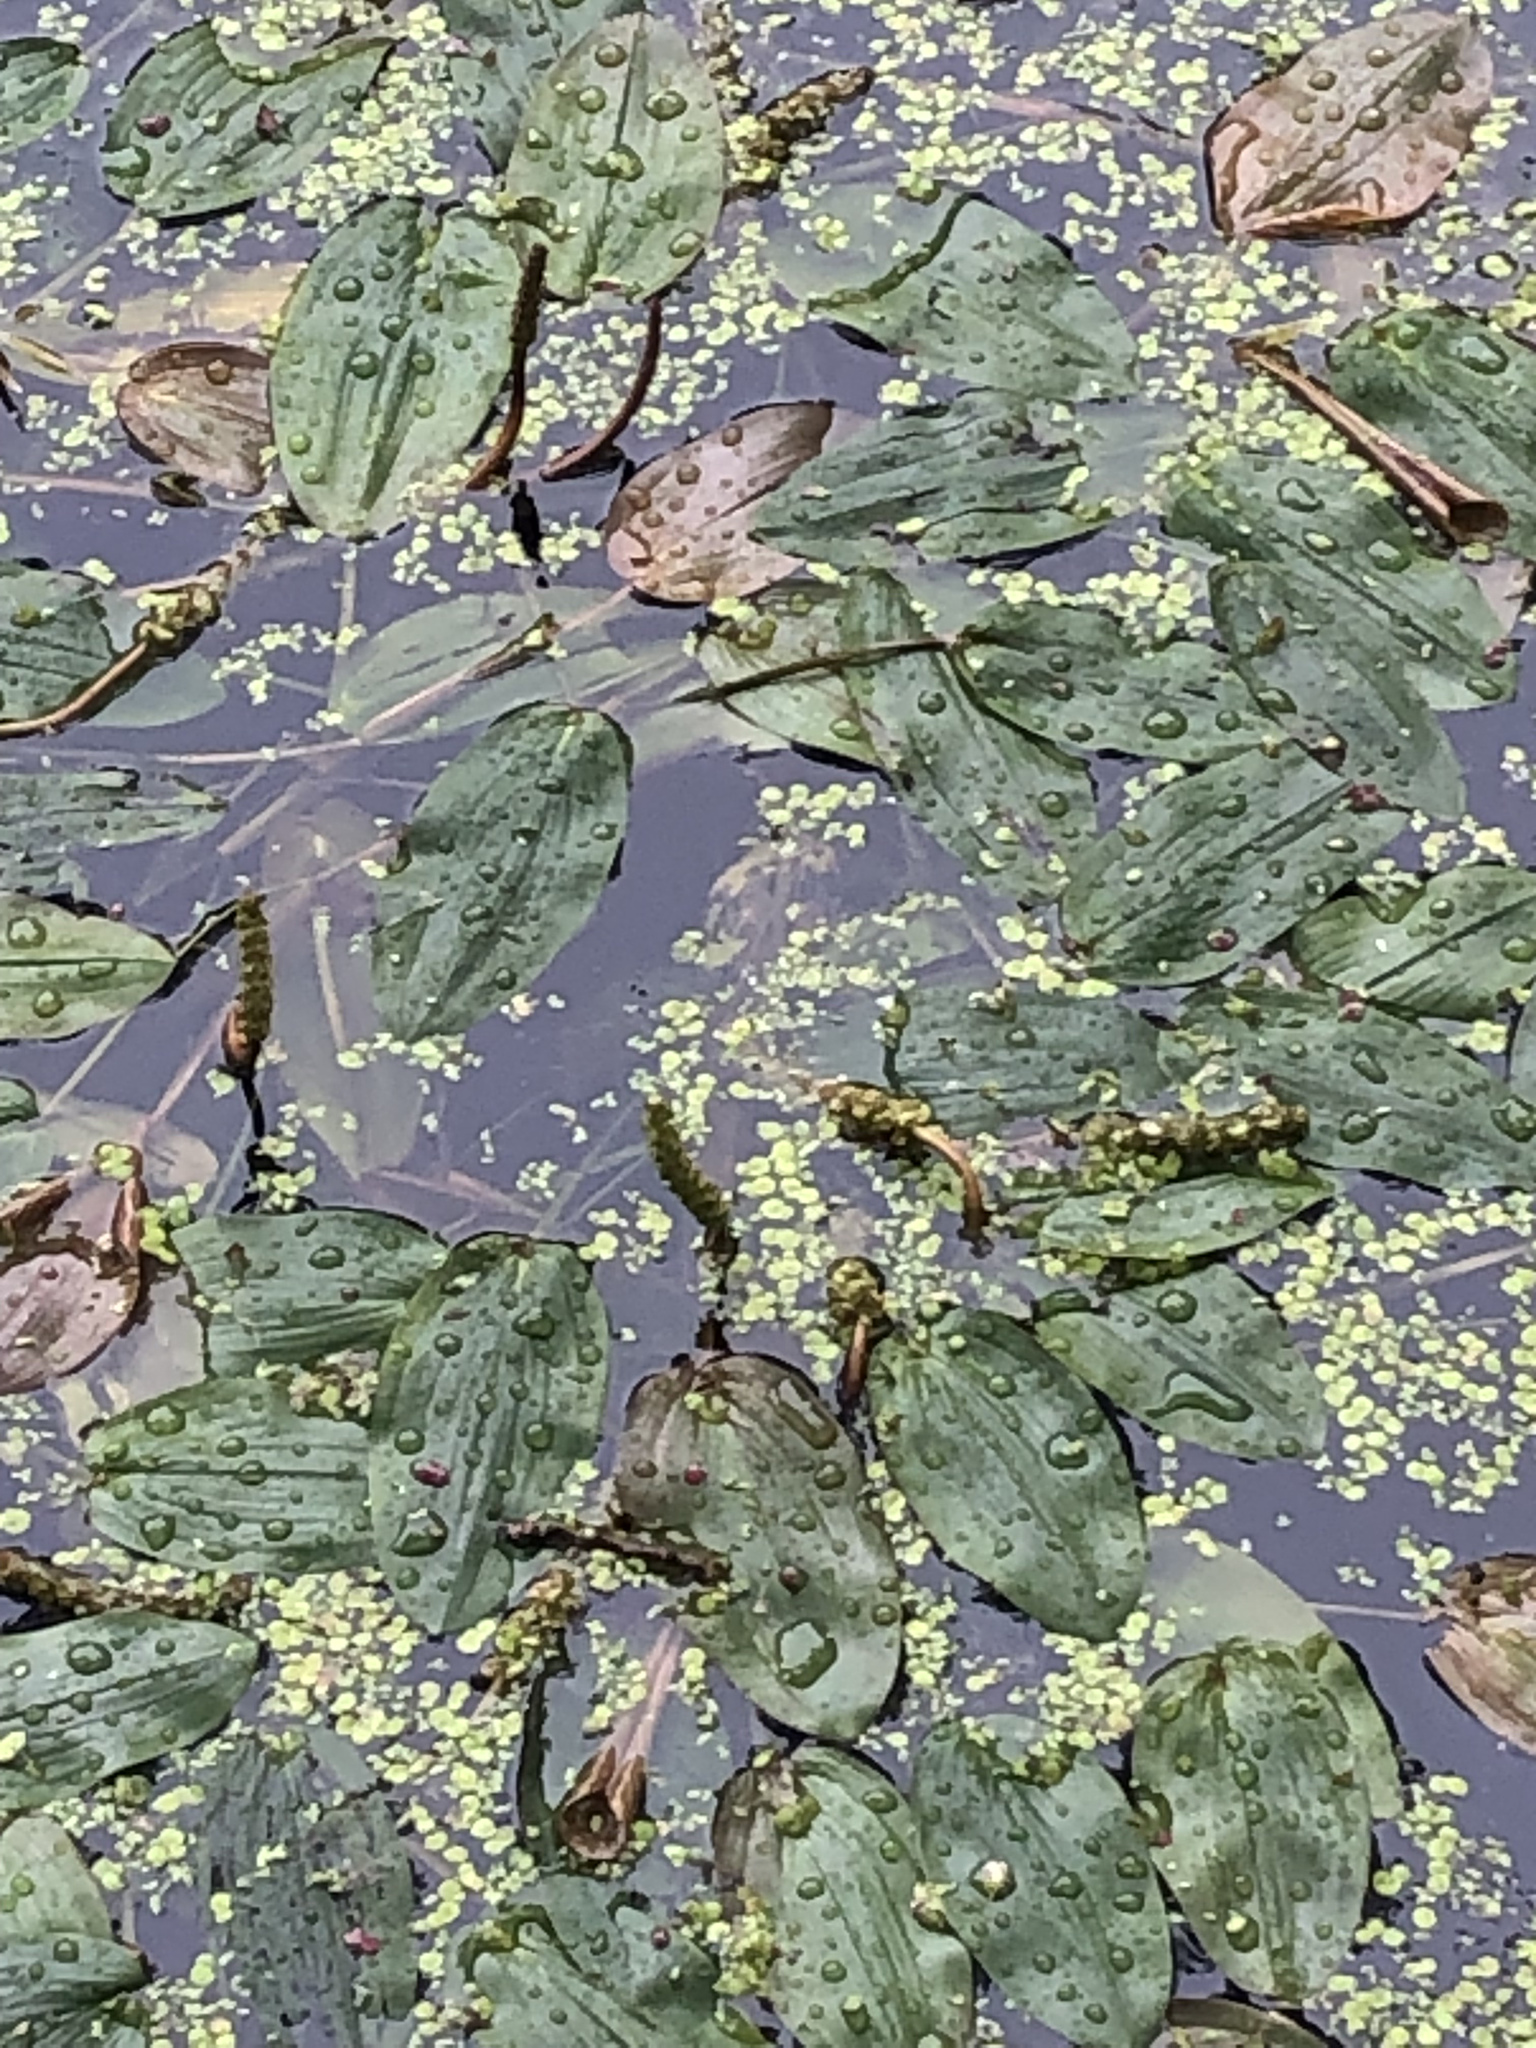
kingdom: Plantae
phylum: Tracheophyta
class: Liliopsida
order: Alismatales
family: Potamogetonaceae
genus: Potamogeton
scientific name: Potamogeton natans
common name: Broad-leaved pondweed
